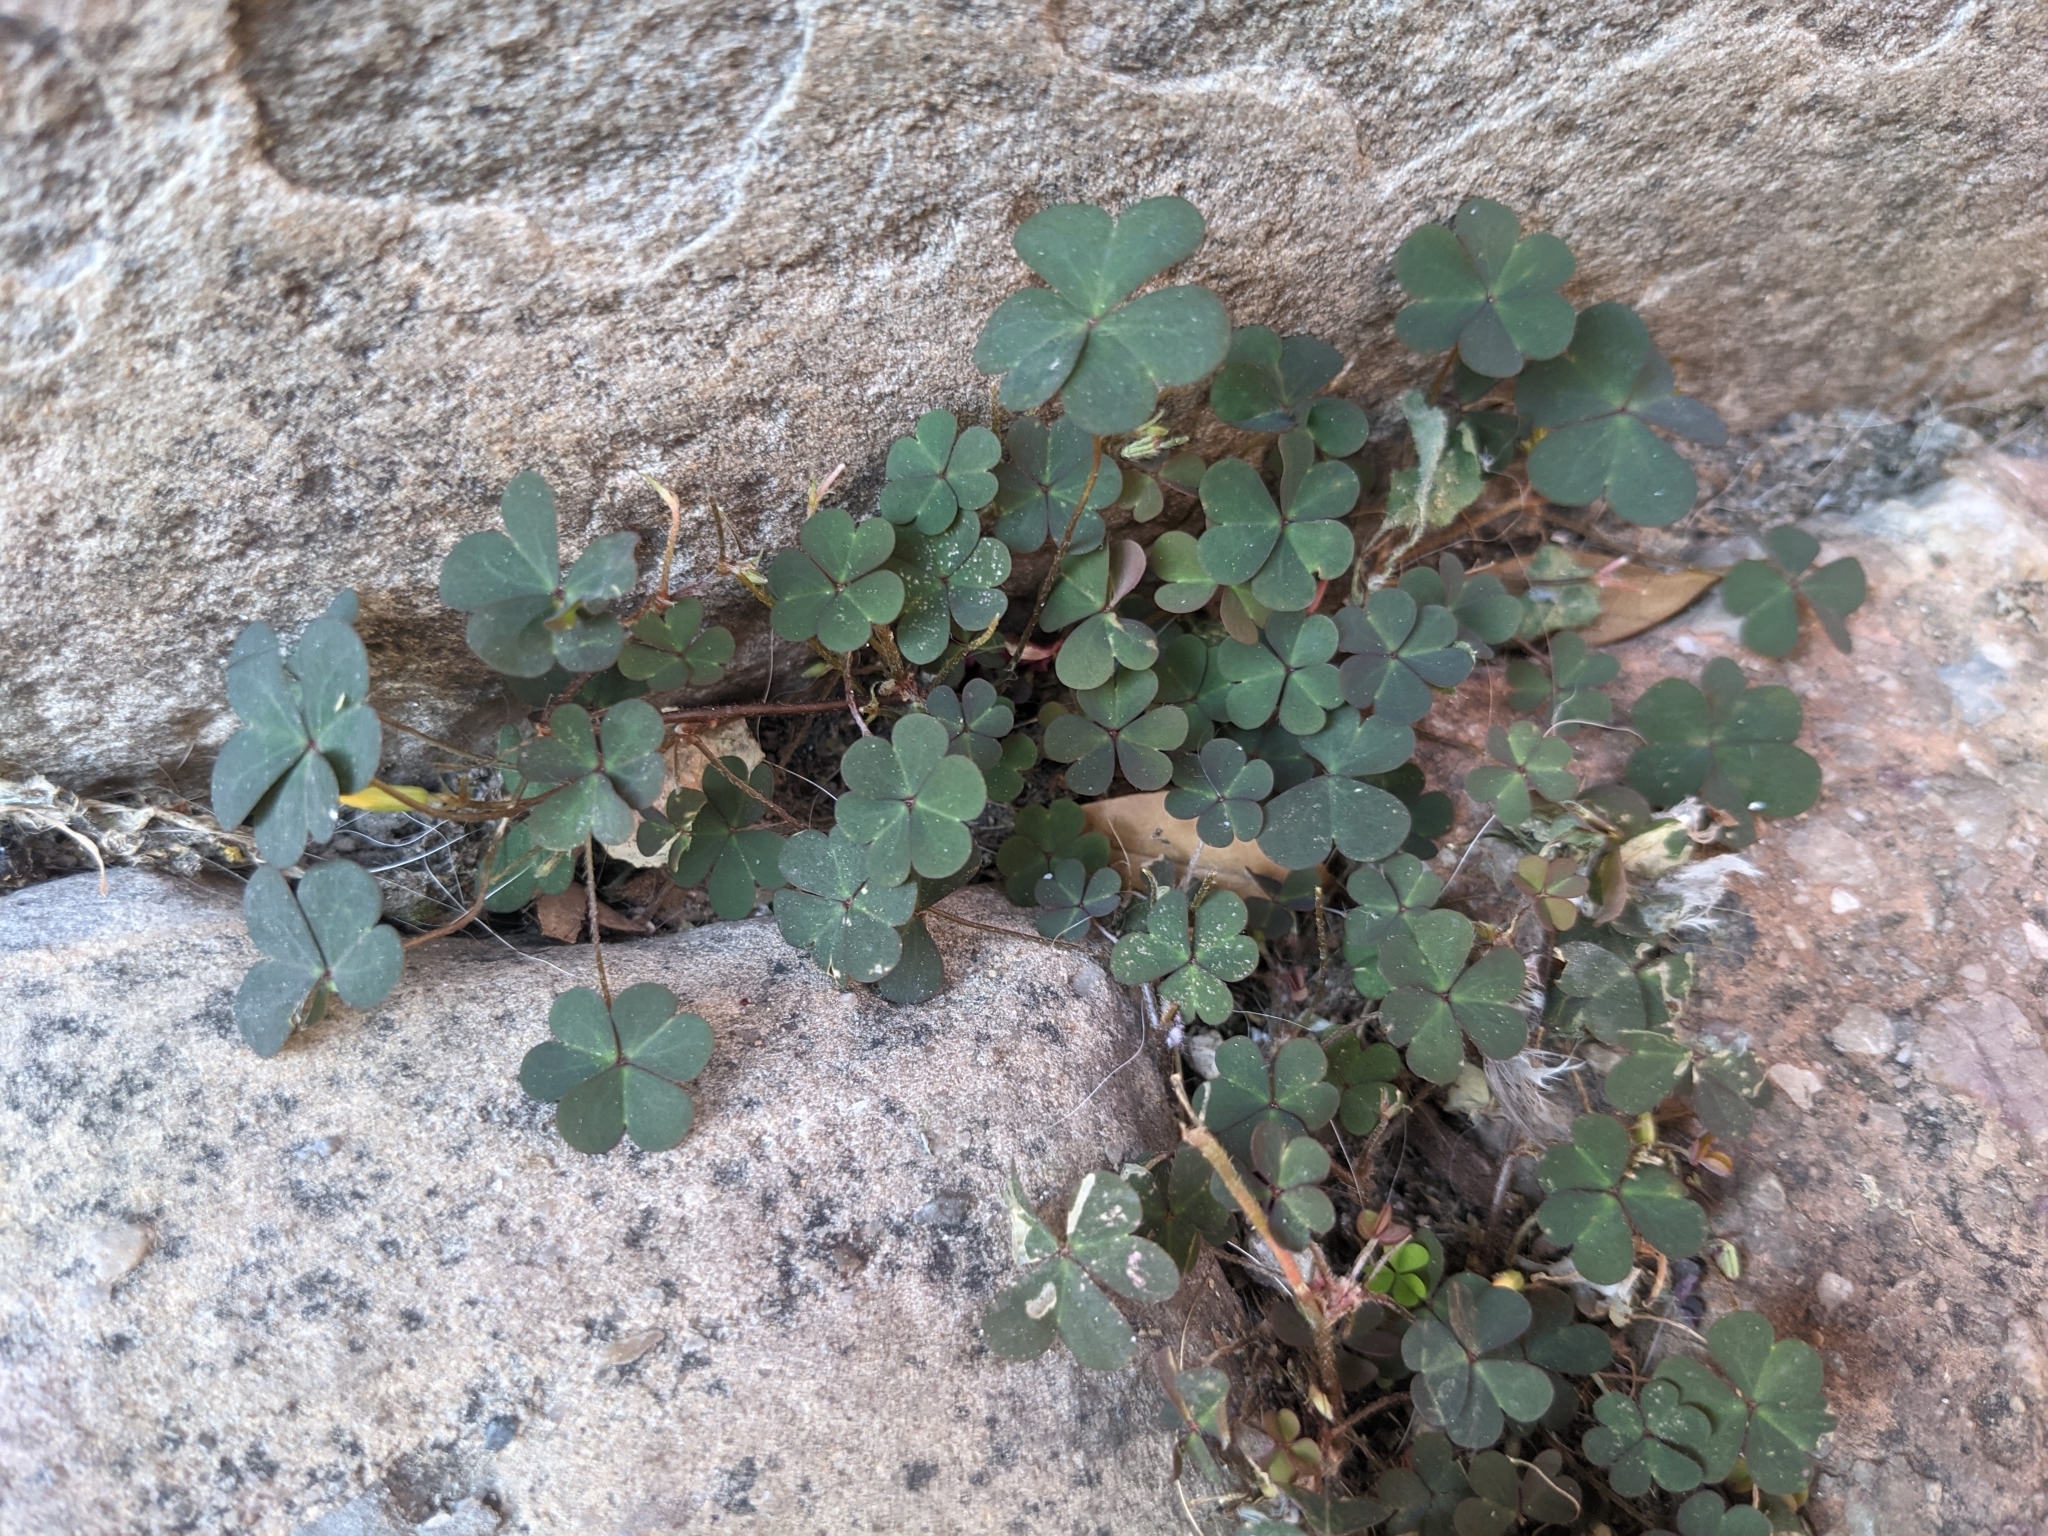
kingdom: Plantae
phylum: Tracheophyta
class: Magnoliopsida
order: Oxalidales
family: Oxalidaceae
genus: Oxalis
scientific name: Oxalis corniculata
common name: Procumbent yellow-sorrel
